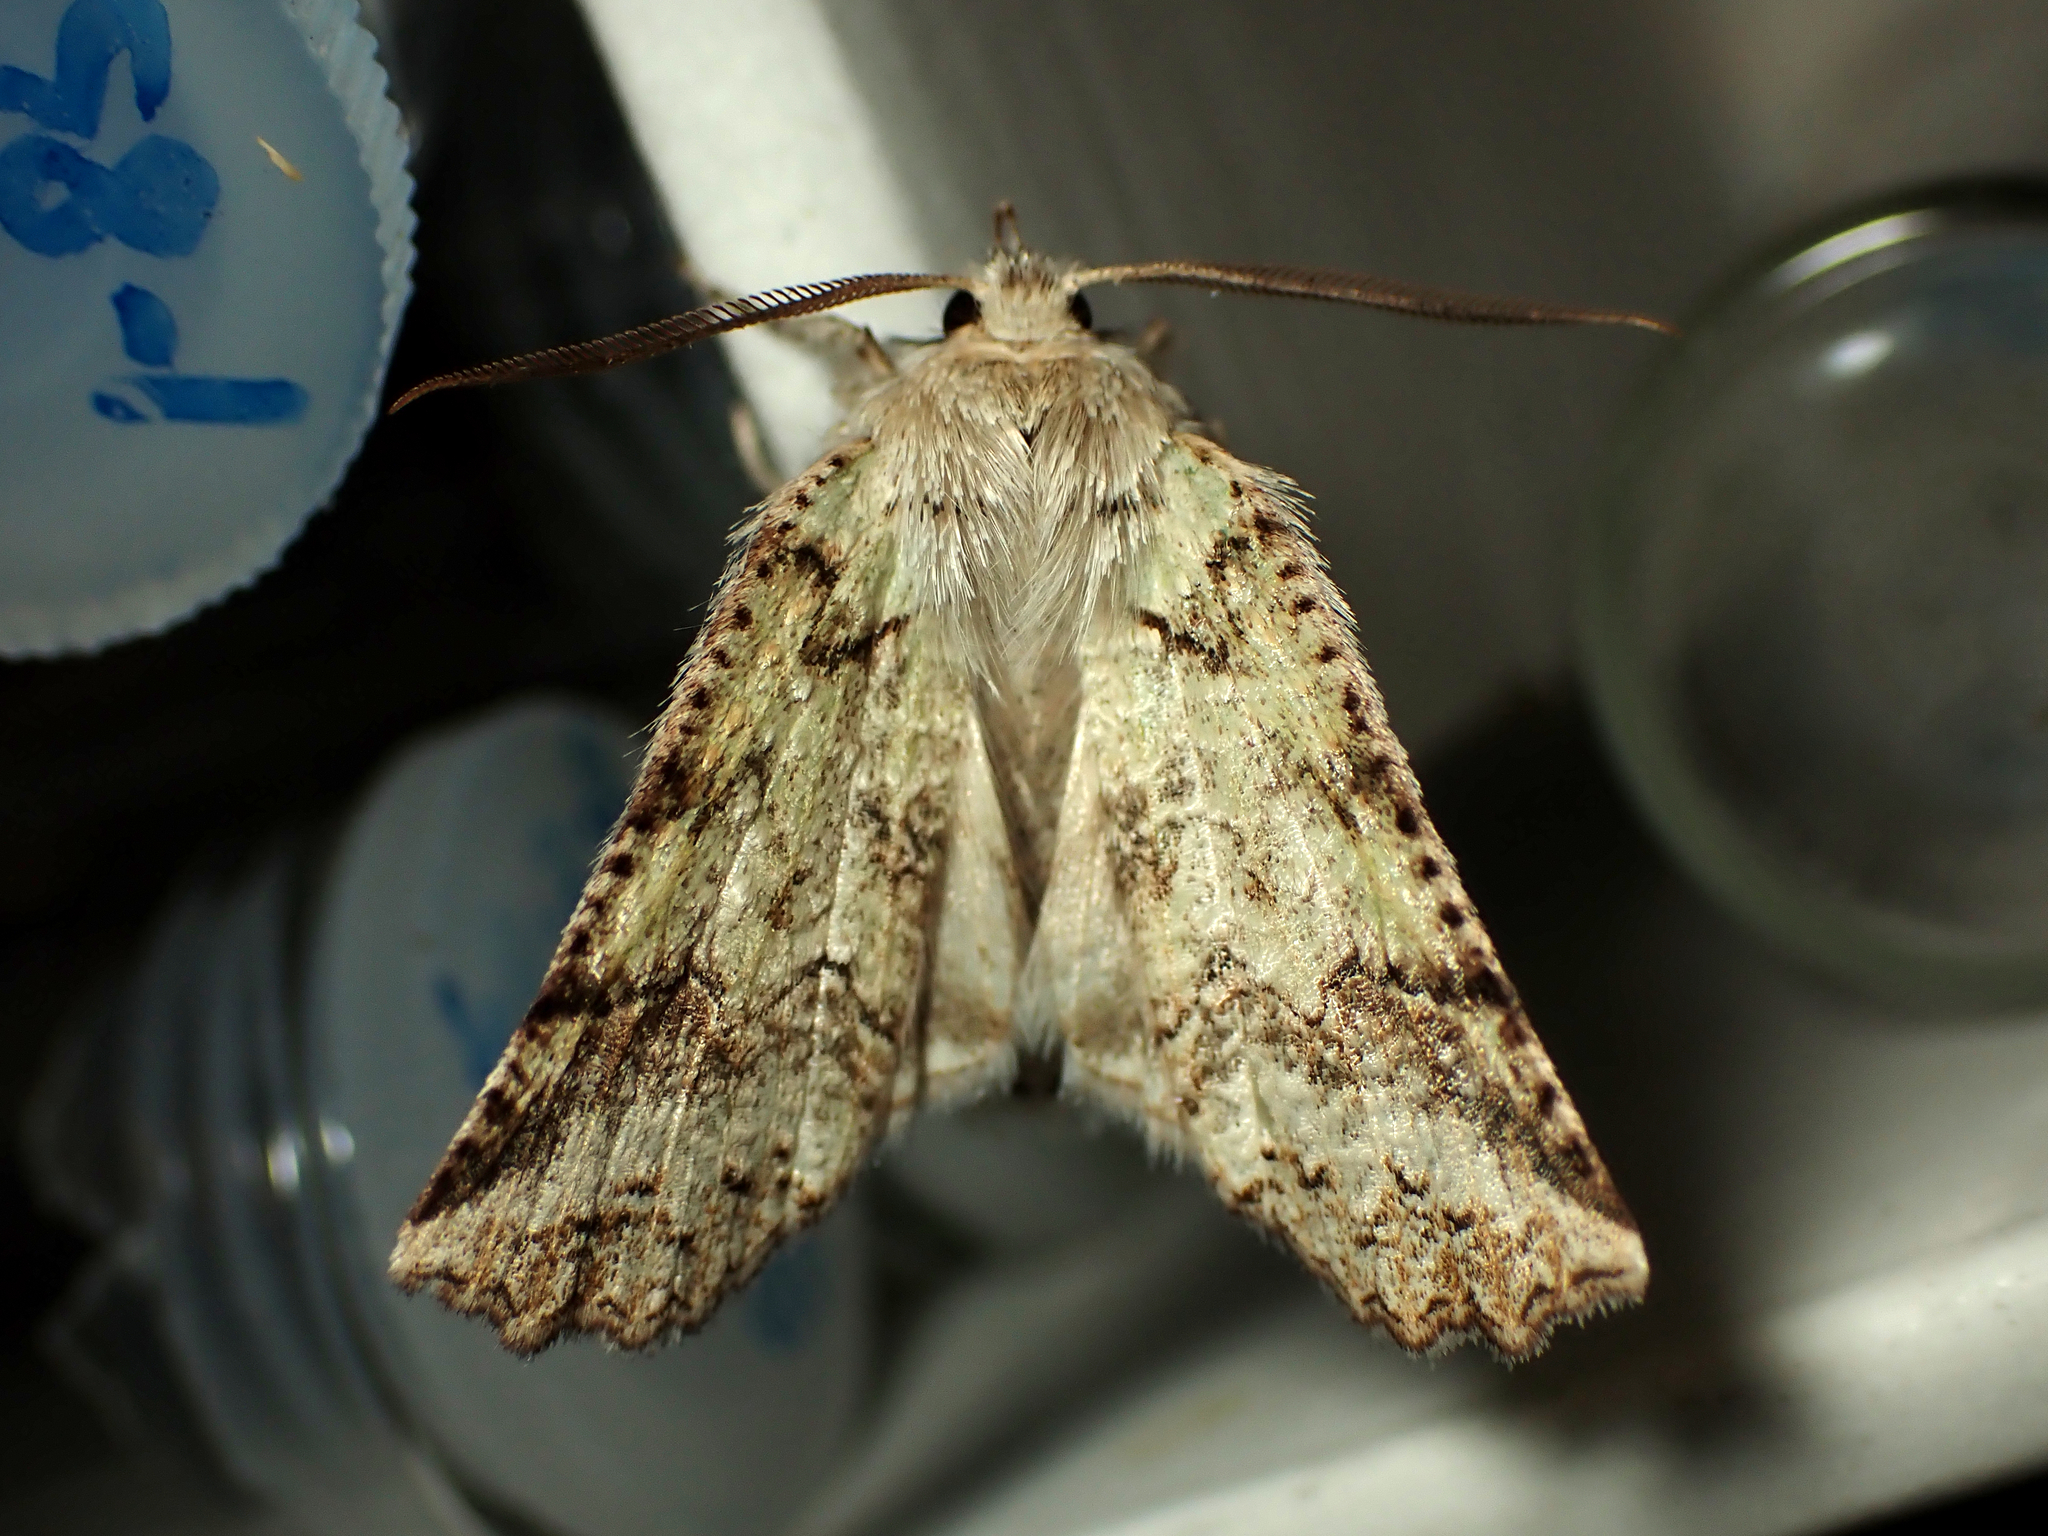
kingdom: Animalia
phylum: Arthropoda
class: Insecta
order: Lepidoptera
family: Geometridae
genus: Declana
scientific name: Declana floccosa
